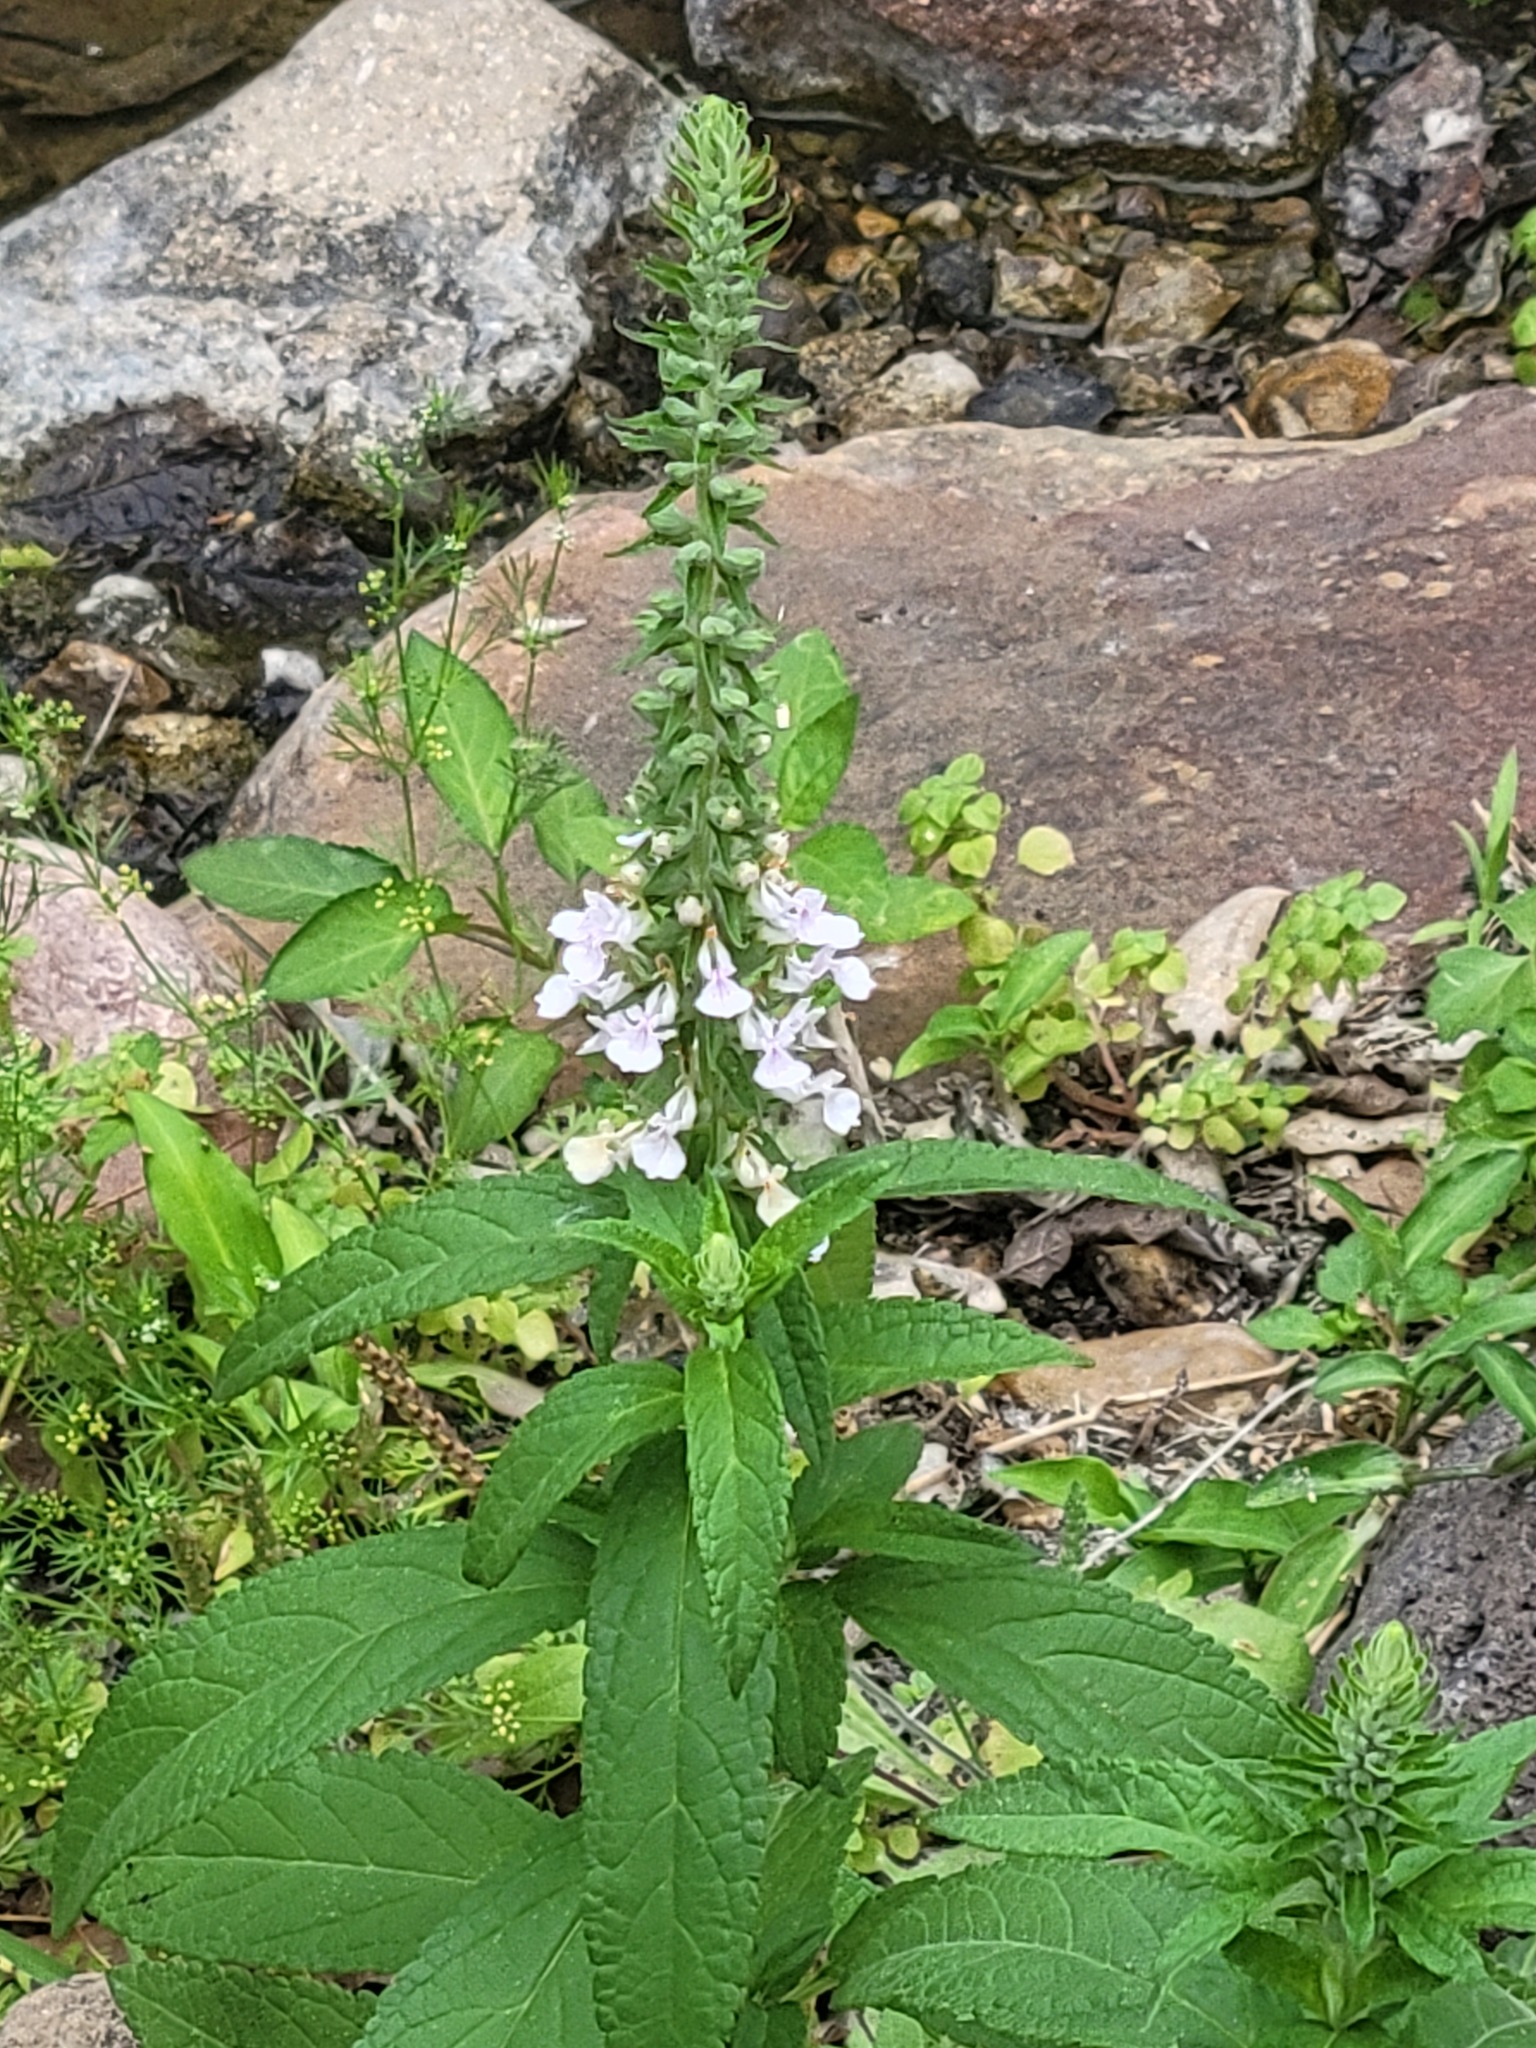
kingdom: Plantae
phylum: Tracheophyta
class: Magnoliopsida
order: Lamiales
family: Lamiaceae
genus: Teucrium
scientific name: Teucrium canadense
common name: American germander
